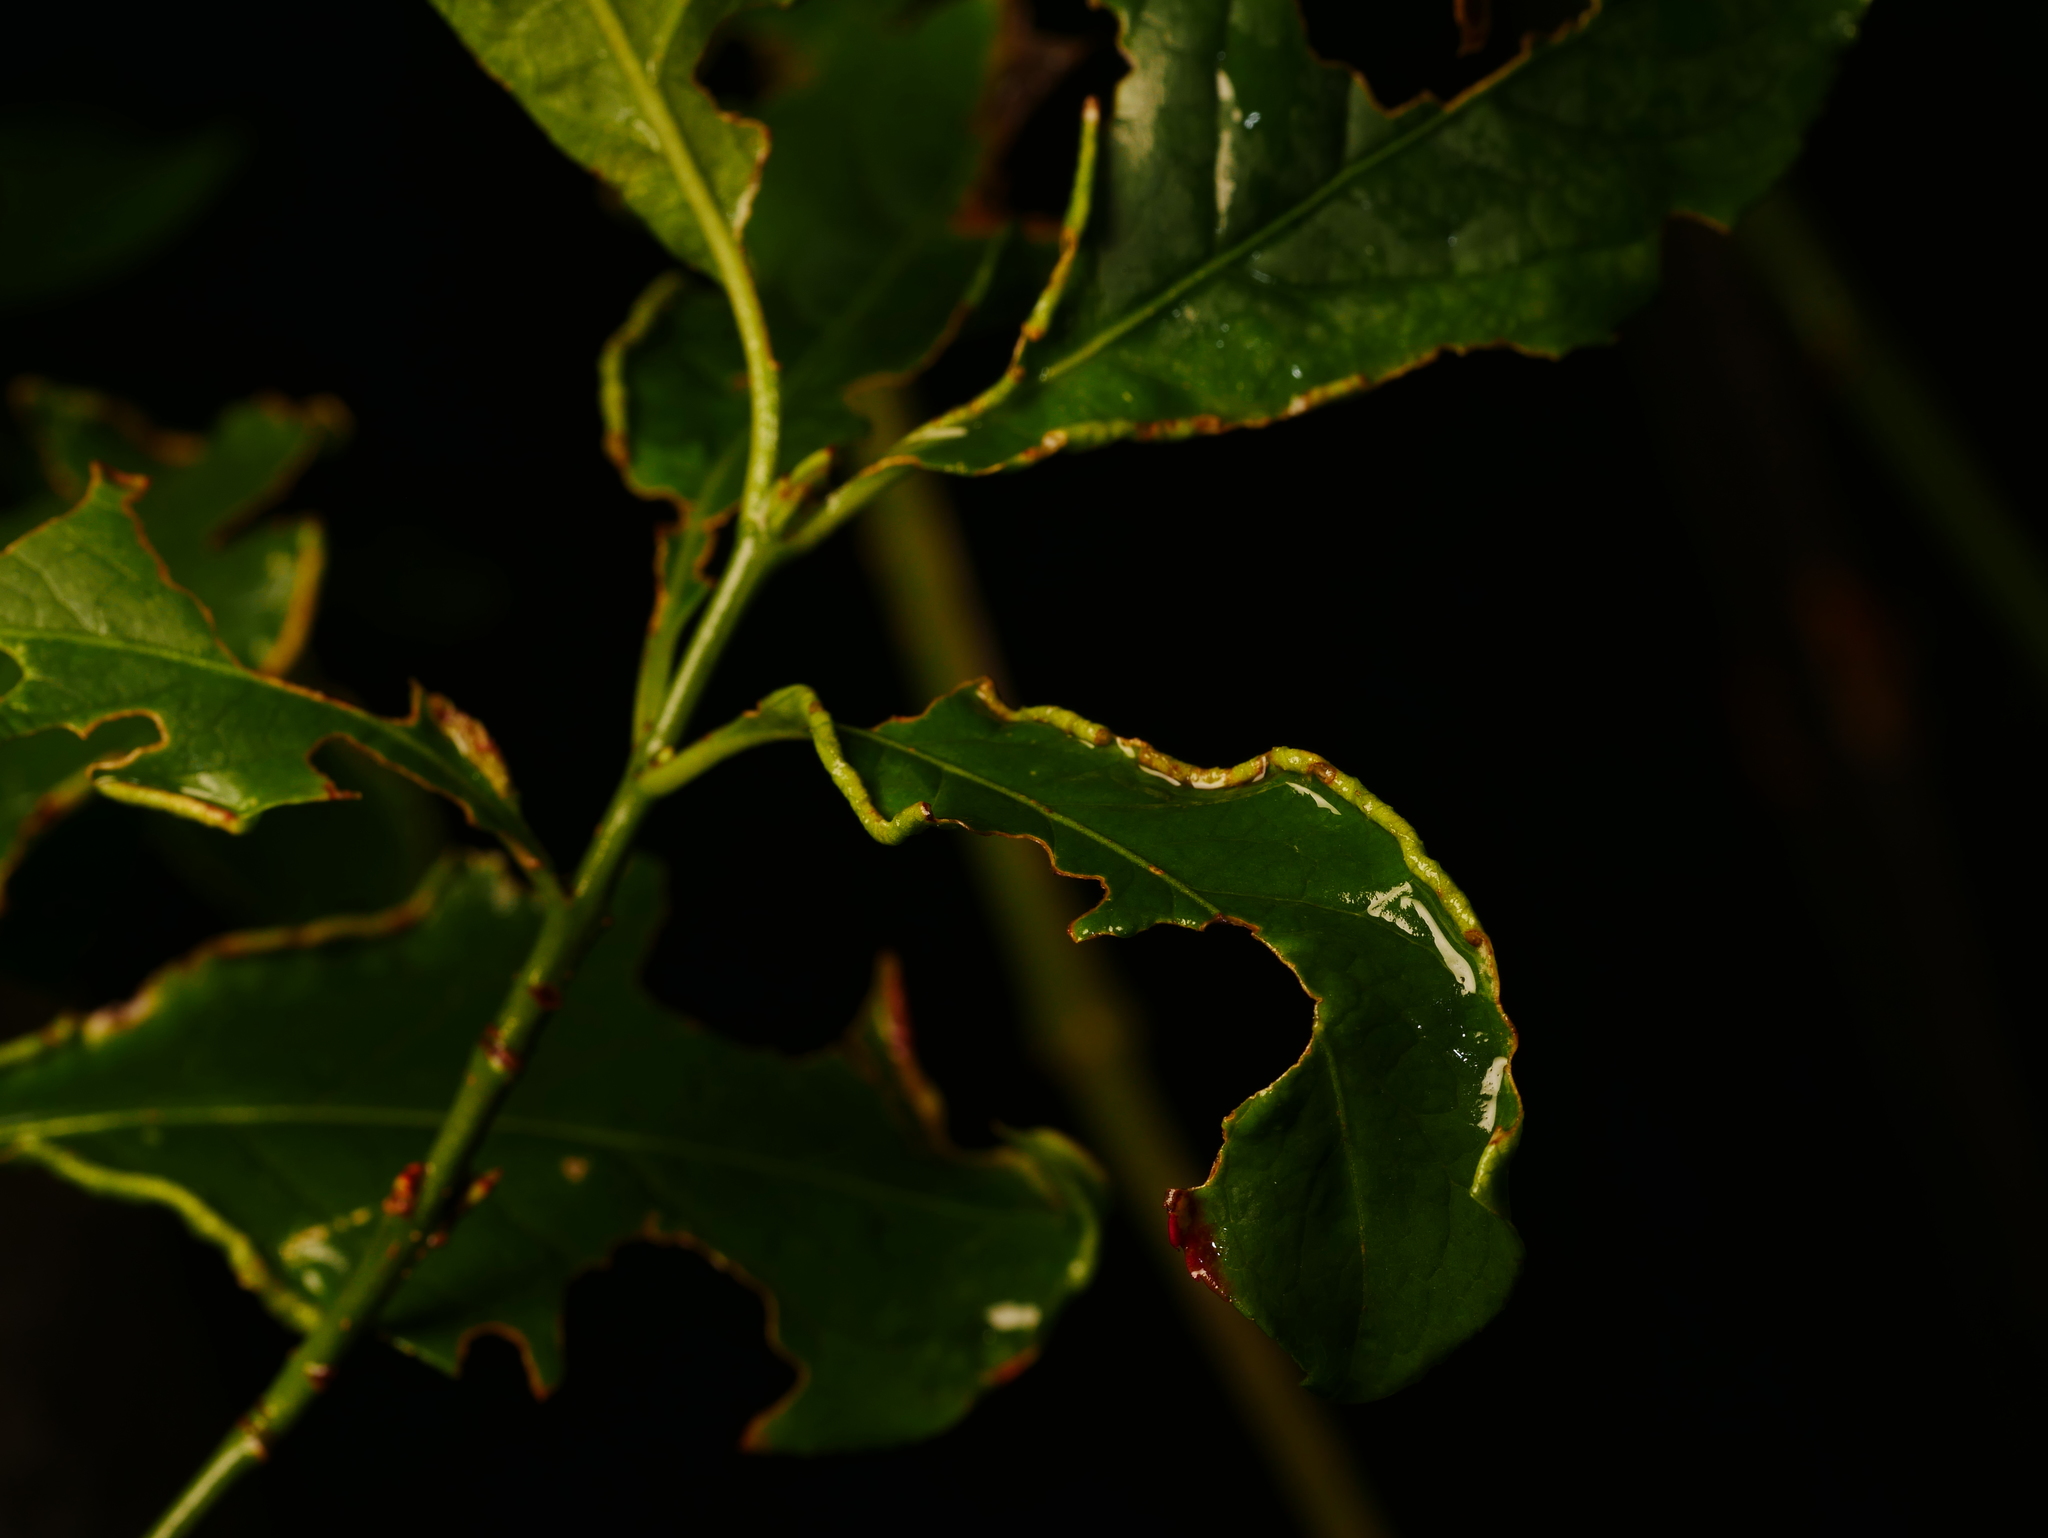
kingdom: Animalia
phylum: Arthropoda
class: Arachnida
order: Trombidiformes
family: Eriophyidae
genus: Stenacis
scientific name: Stenacis evonymi
